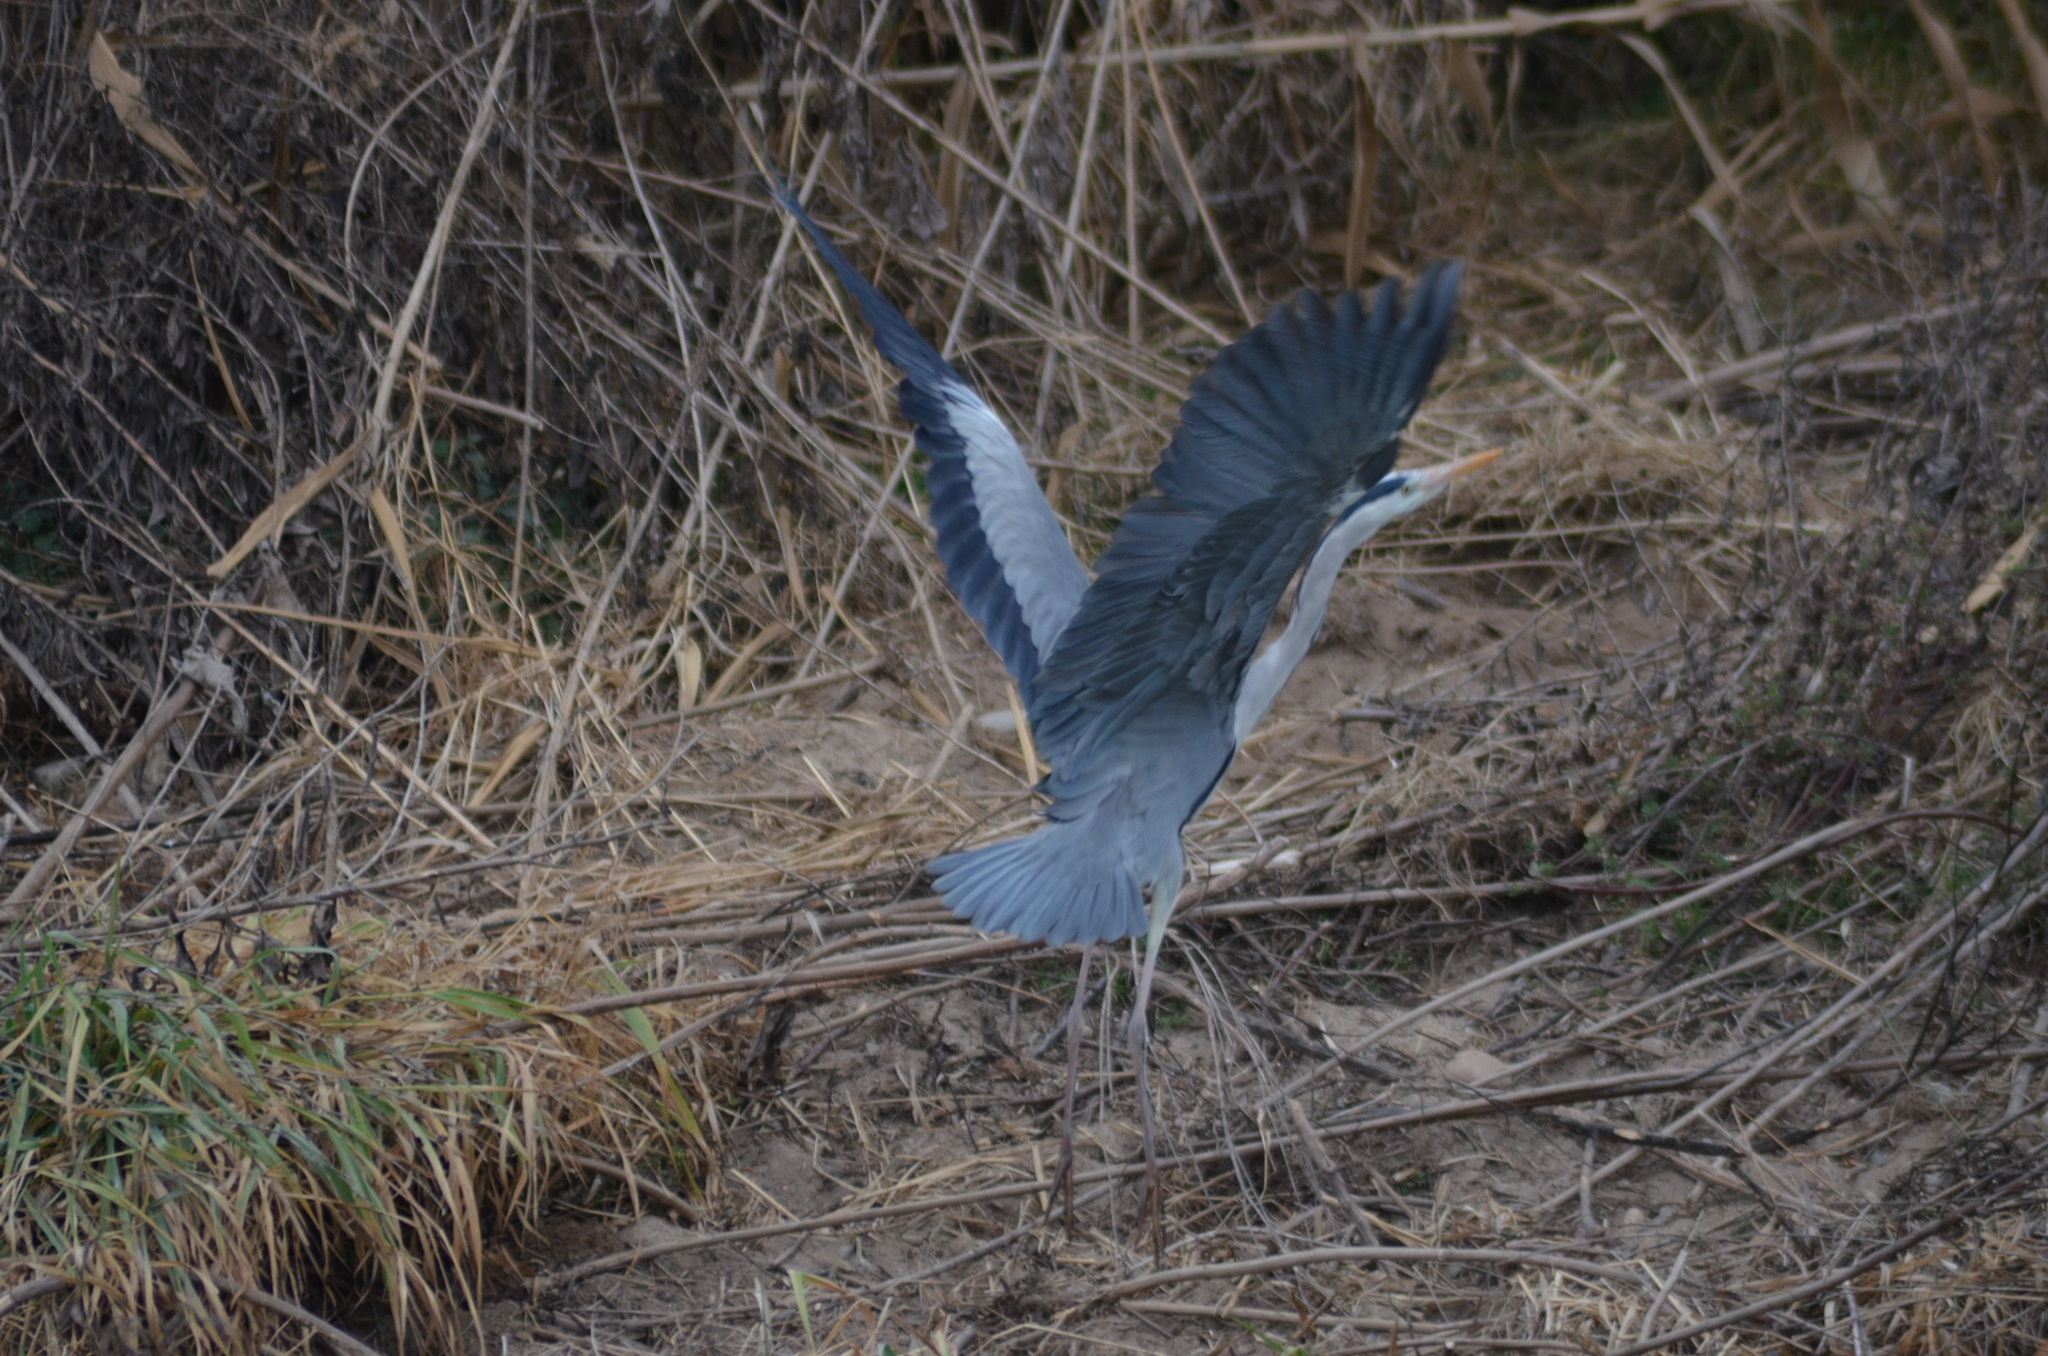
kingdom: Animalia
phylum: Chordata
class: Aves
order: Pelecaniformes
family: Ardeidae
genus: Ardea
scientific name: Ardea cinerea
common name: Grey heron
